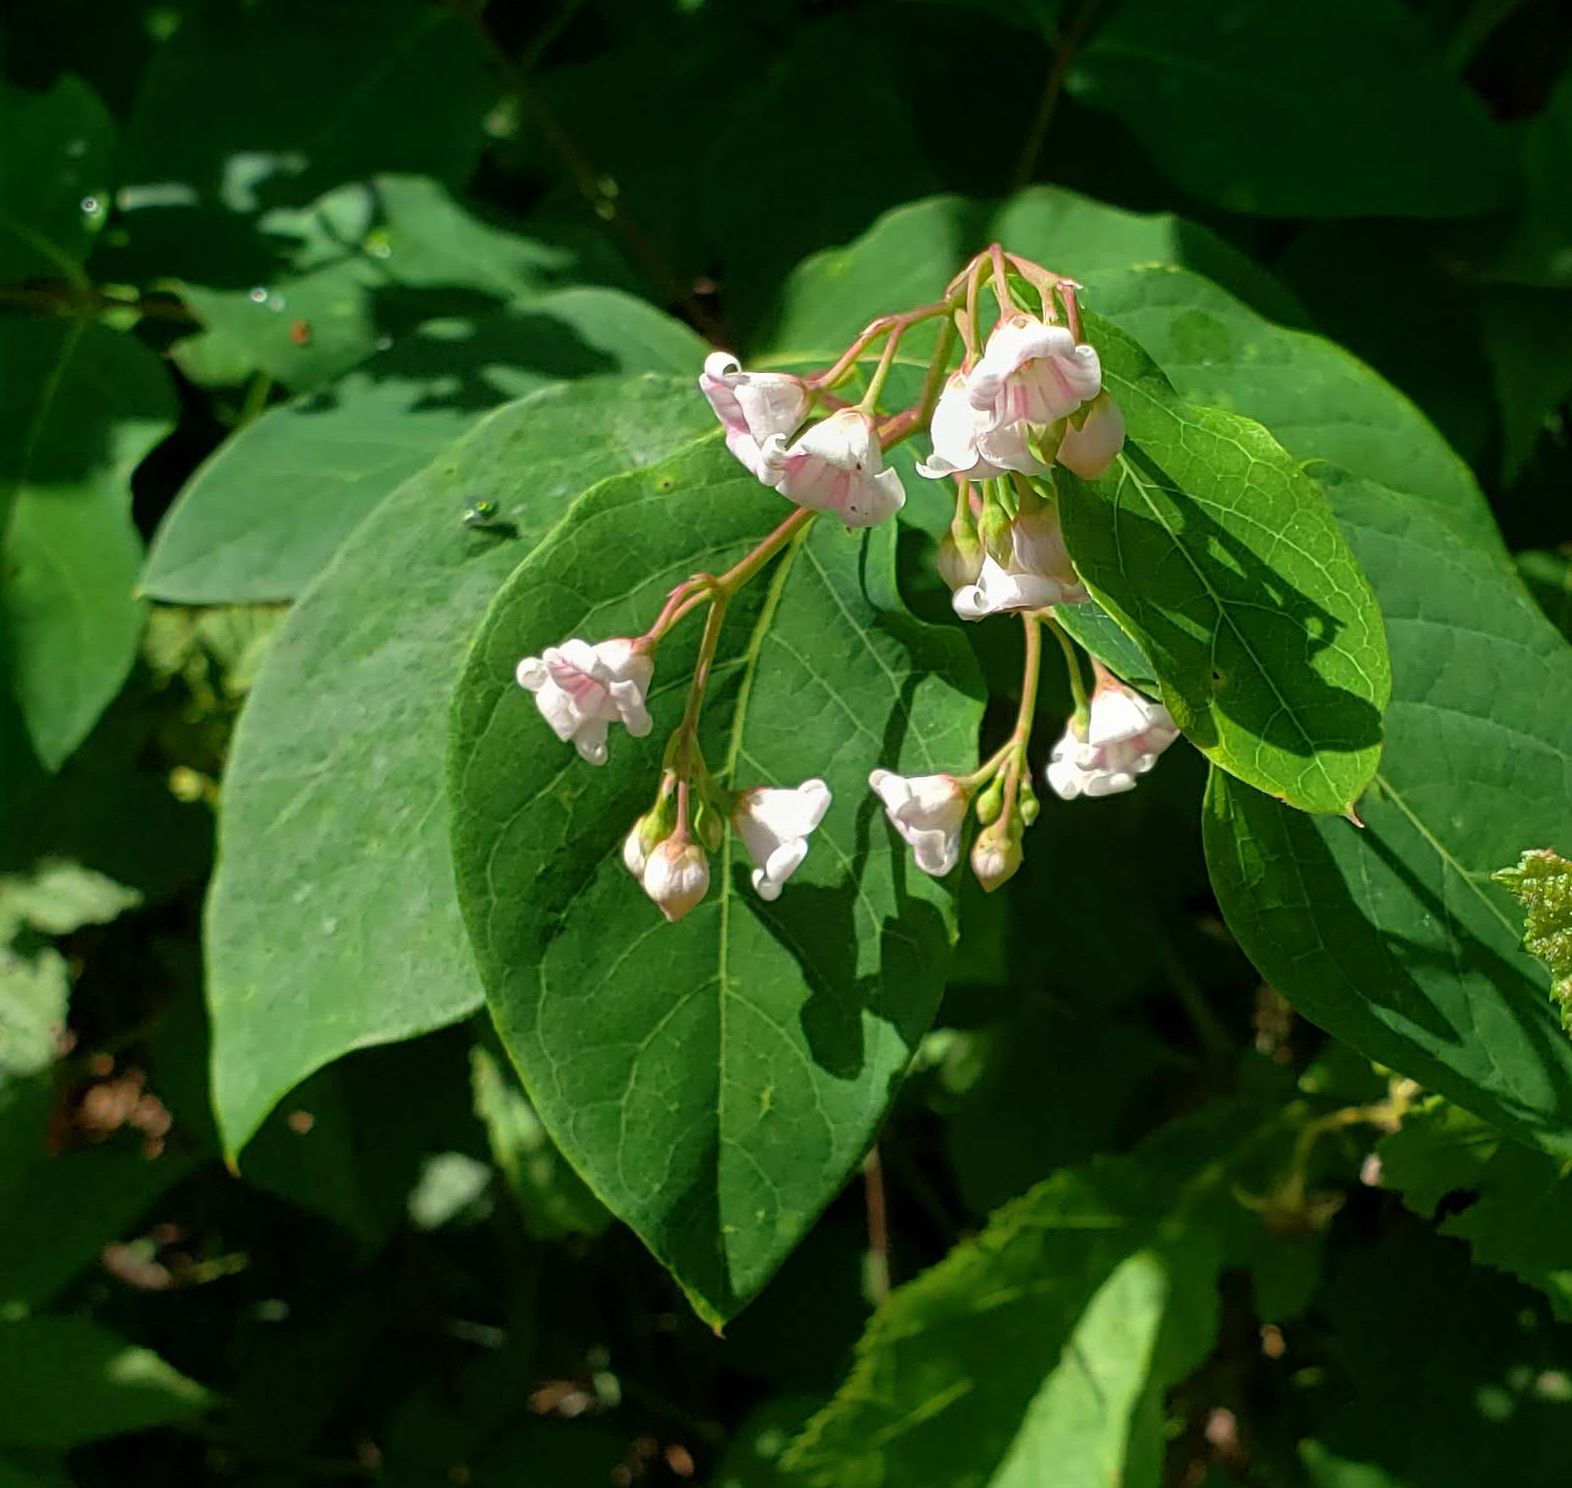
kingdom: Plantae
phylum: Tracheophyta
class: Magnoliopsida
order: Gentianales
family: Apocynaceae
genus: Apocynum
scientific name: Apocynum androsaemifolium
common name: Spreading dogbane
